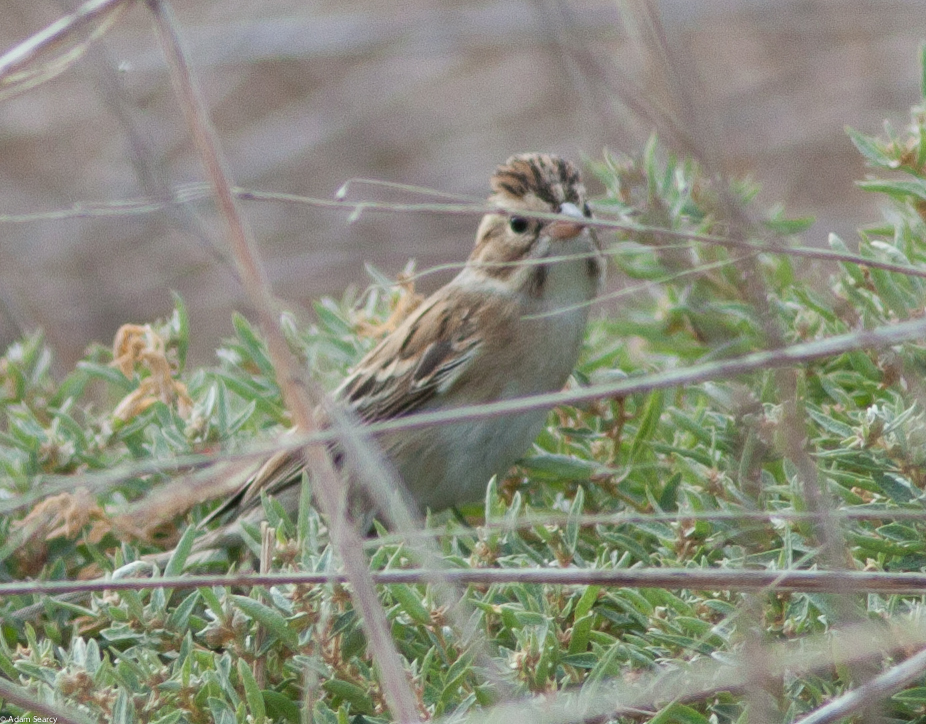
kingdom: Animalia
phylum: Chordata
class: Aves
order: Passeriformes
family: Passerellidae
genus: Spizella
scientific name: Spizella pallida
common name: Clay-colored sparrow
